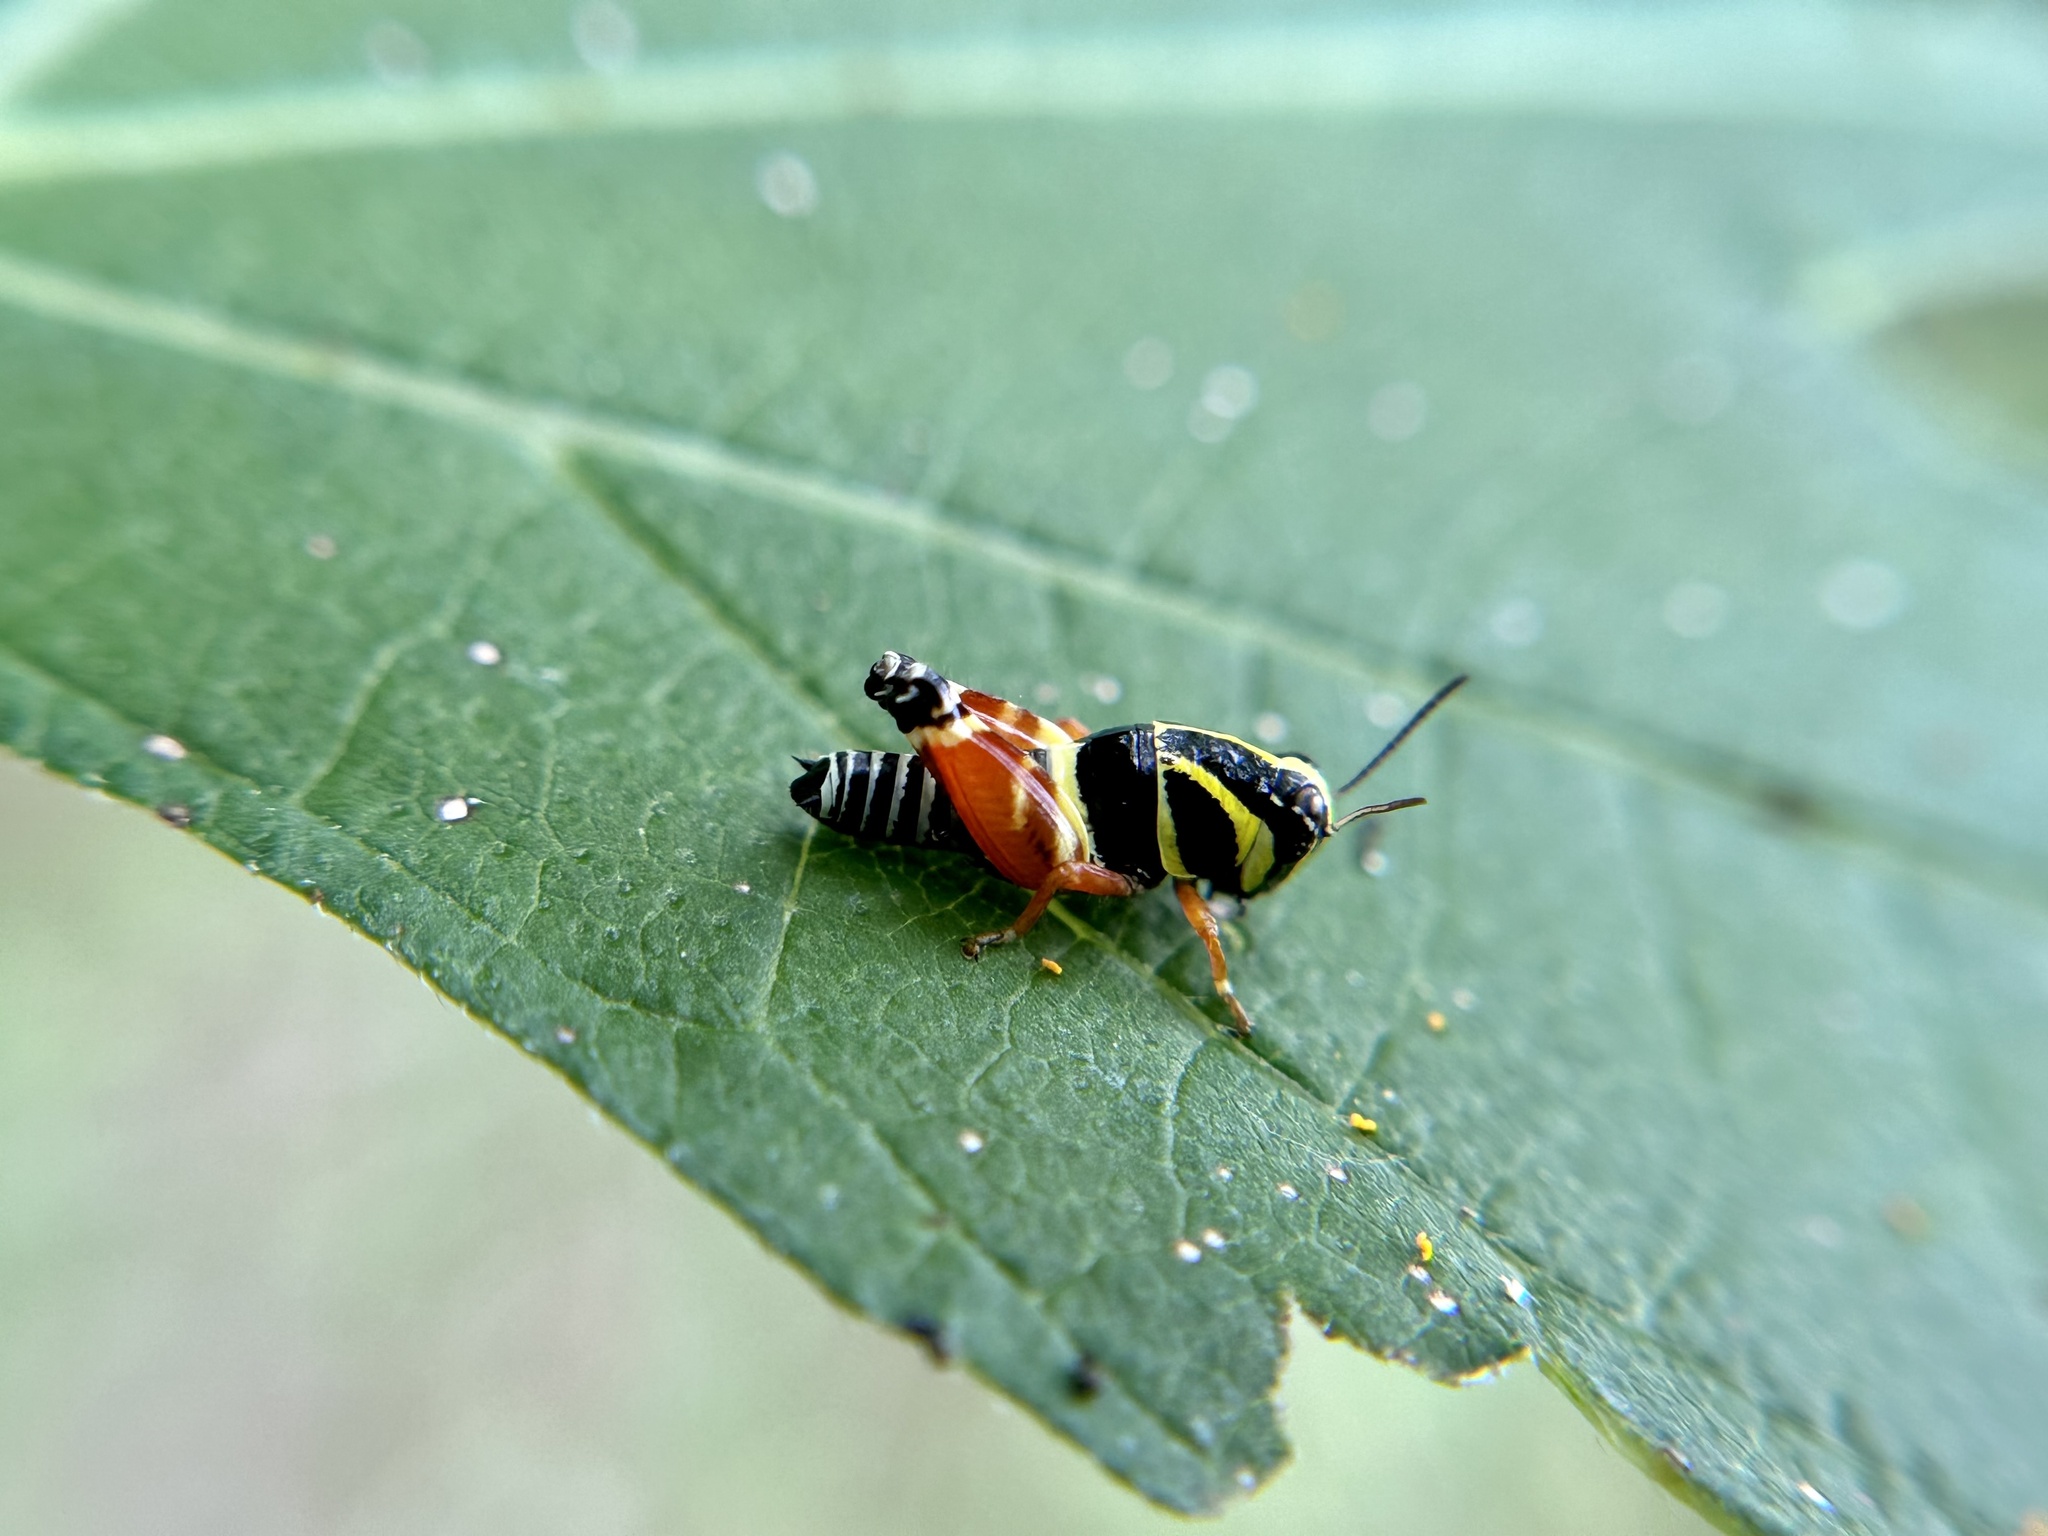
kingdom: Animalia
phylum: Arthropoda
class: Insecta
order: Orthoptera
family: Acrididae
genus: Aidemona
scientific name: Aidemona azteca
